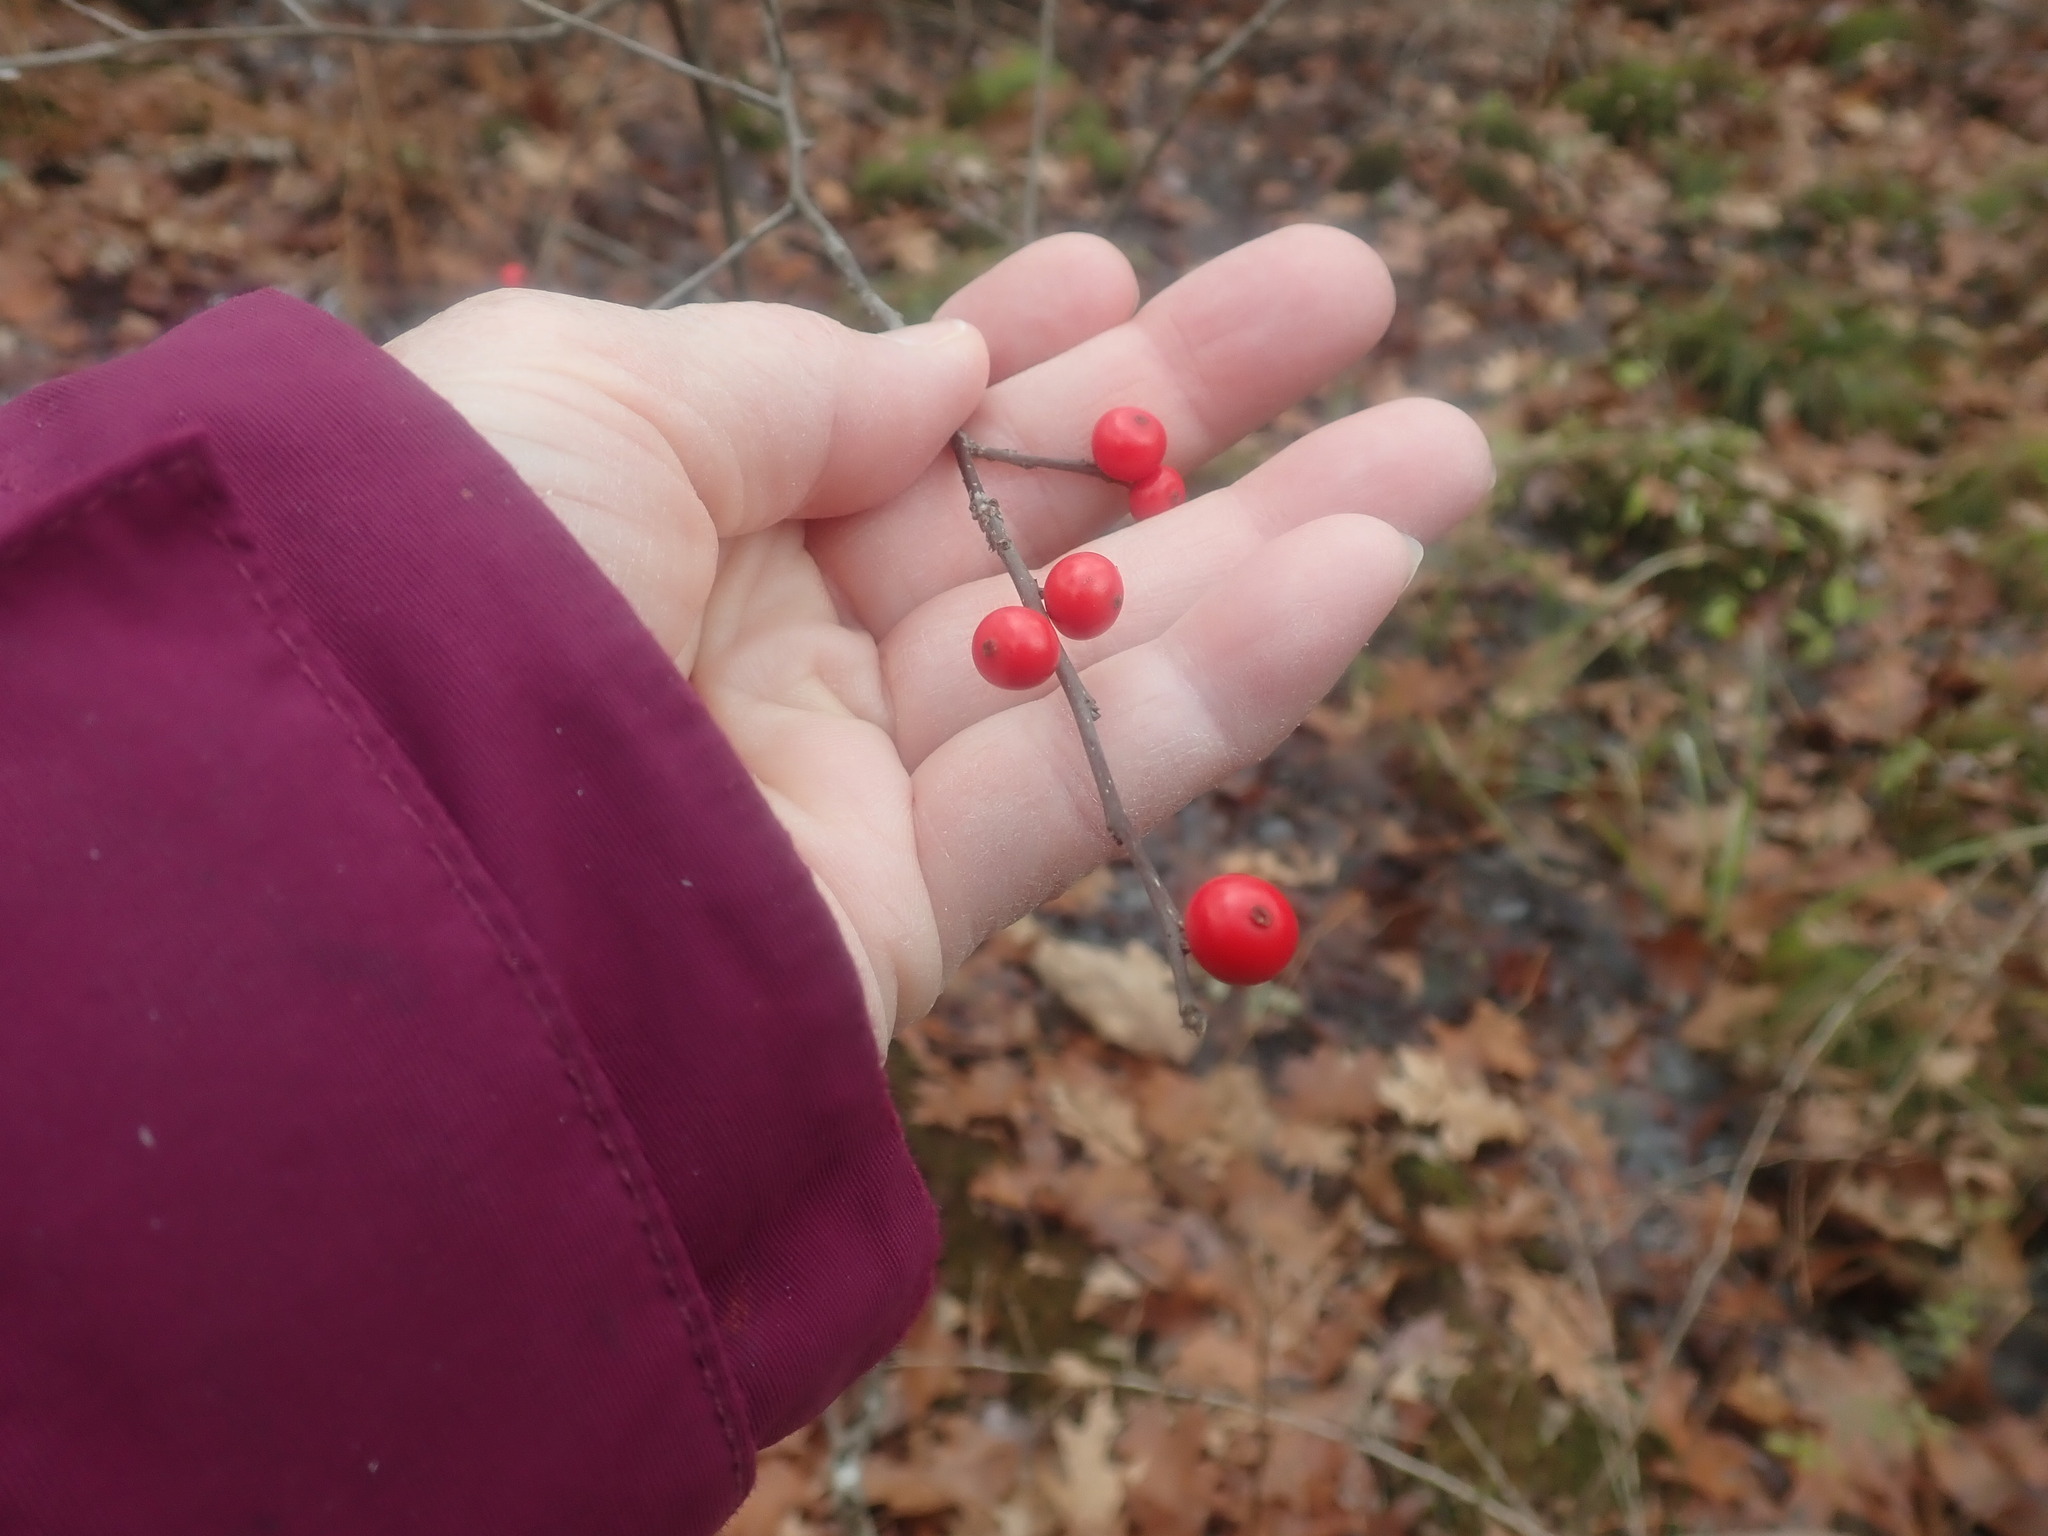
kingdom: Plantae
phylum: Tracheophyta
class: Magnoliopsida
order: Aquifoliales
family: Aquifoliaceae
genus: Ilex
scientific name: Ilex verticillata
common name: Virginia winterberry
